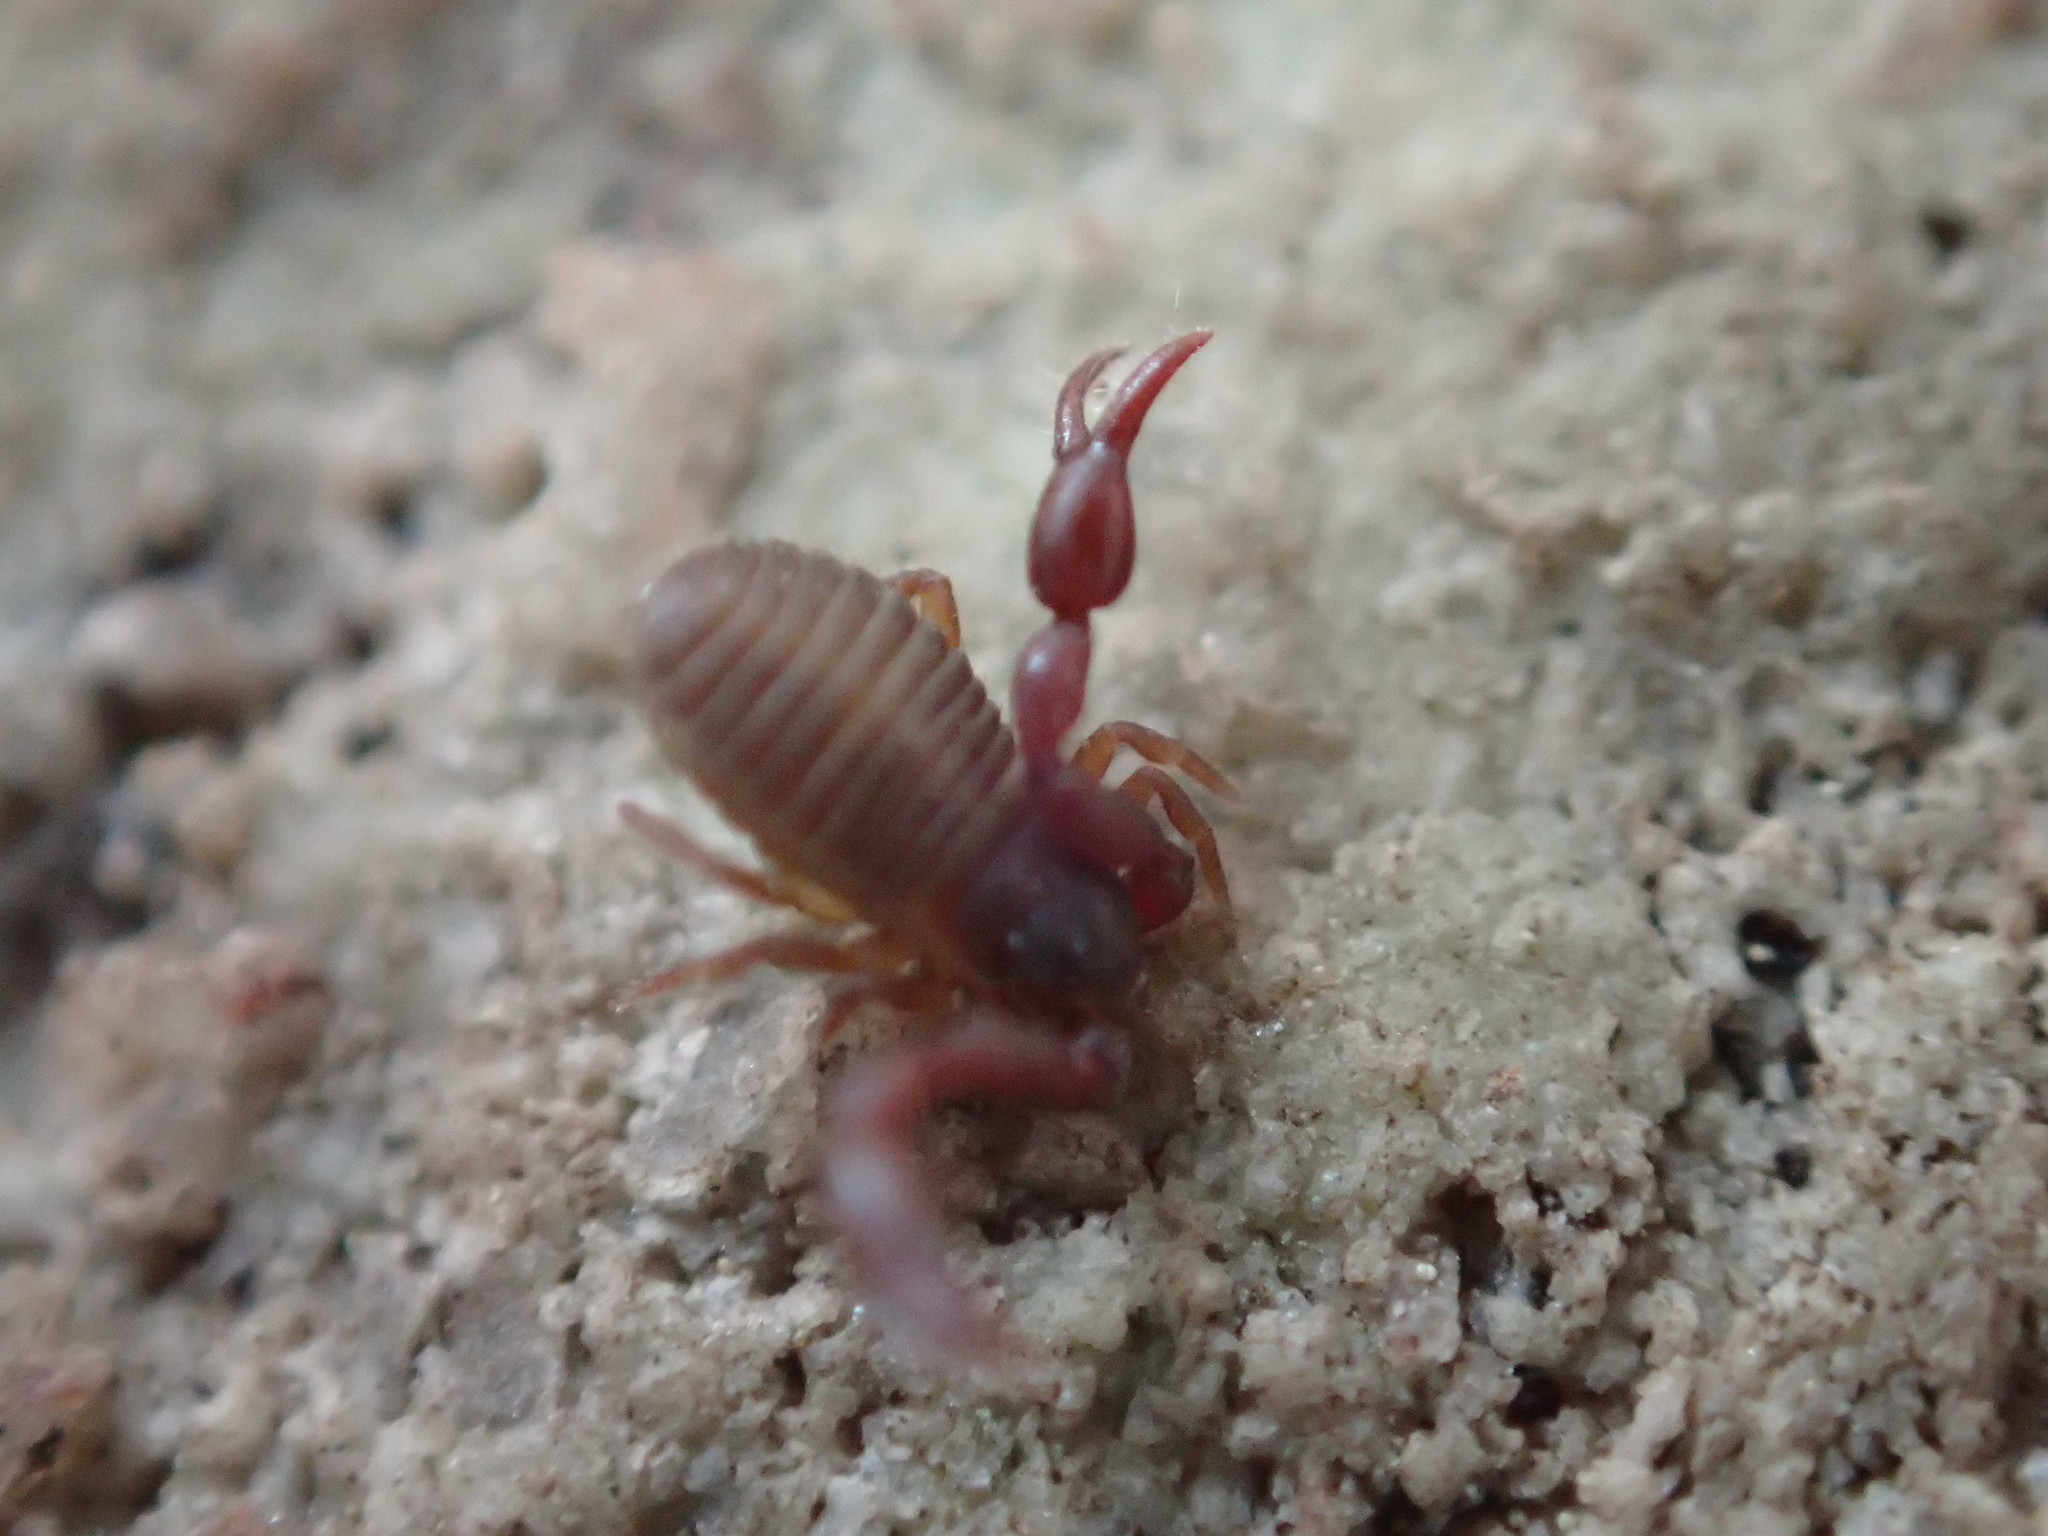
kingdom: Animalia
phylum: Arthropoda
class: Arachnida
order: Pseudoscorpiones
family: Chernetidae
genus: Wyochernes
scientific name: Wyochernes asiaticus
